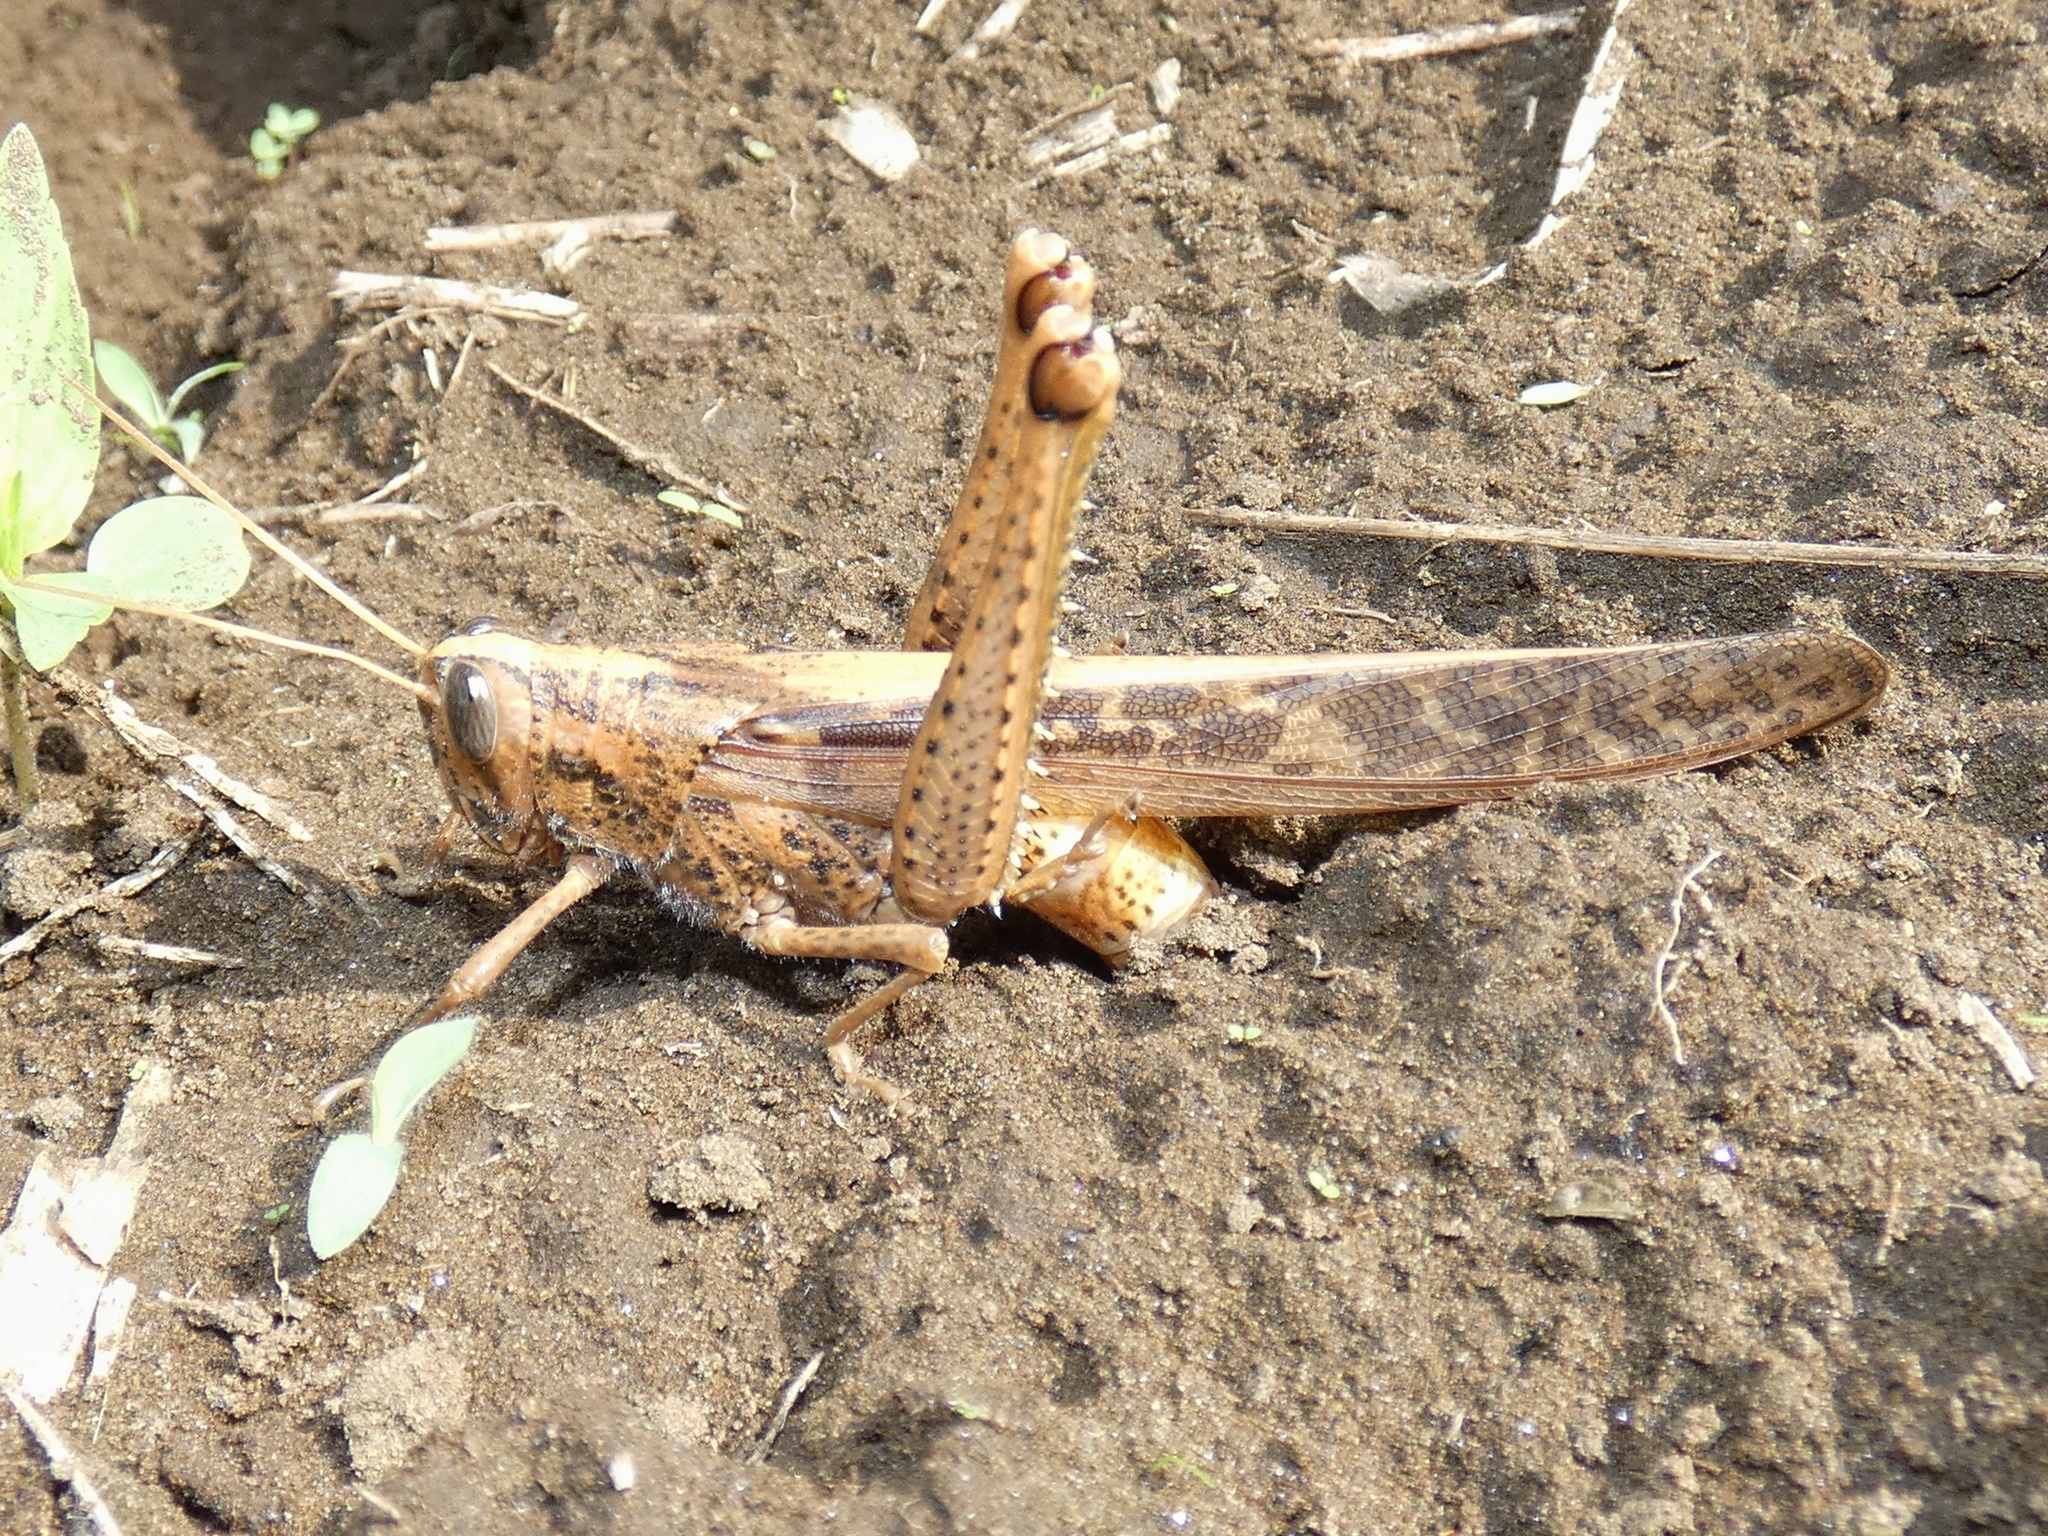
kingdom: Animalia
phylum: Arthropoda
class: Insecta
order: Orthoptera
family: Acrididae
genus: Schistocerca
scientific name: Schistocerca nitens
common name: Vagrant grasshopper
